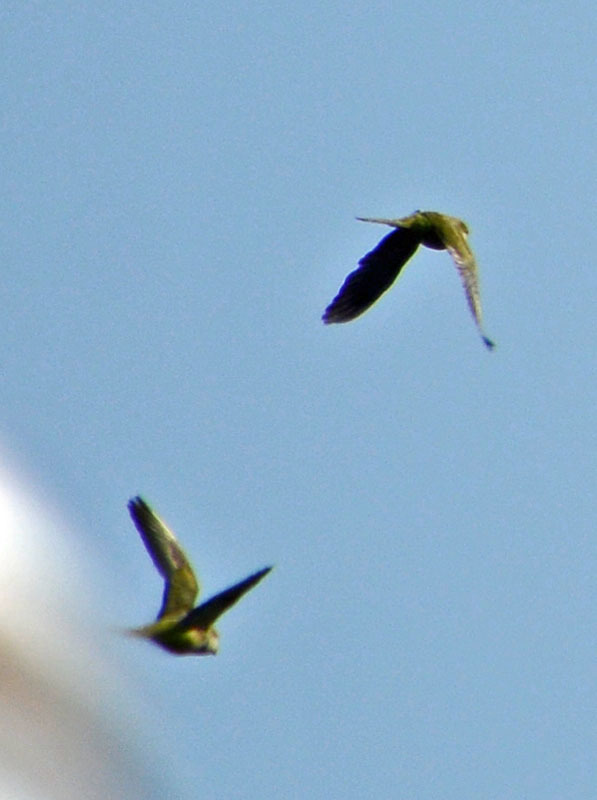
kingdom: Animalia
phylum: Chordata
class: Aves
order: Psittaciformes
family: Psittacidae
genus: Myiopsitta
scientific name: Myiopsitta monachus
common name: Monk parakeet
